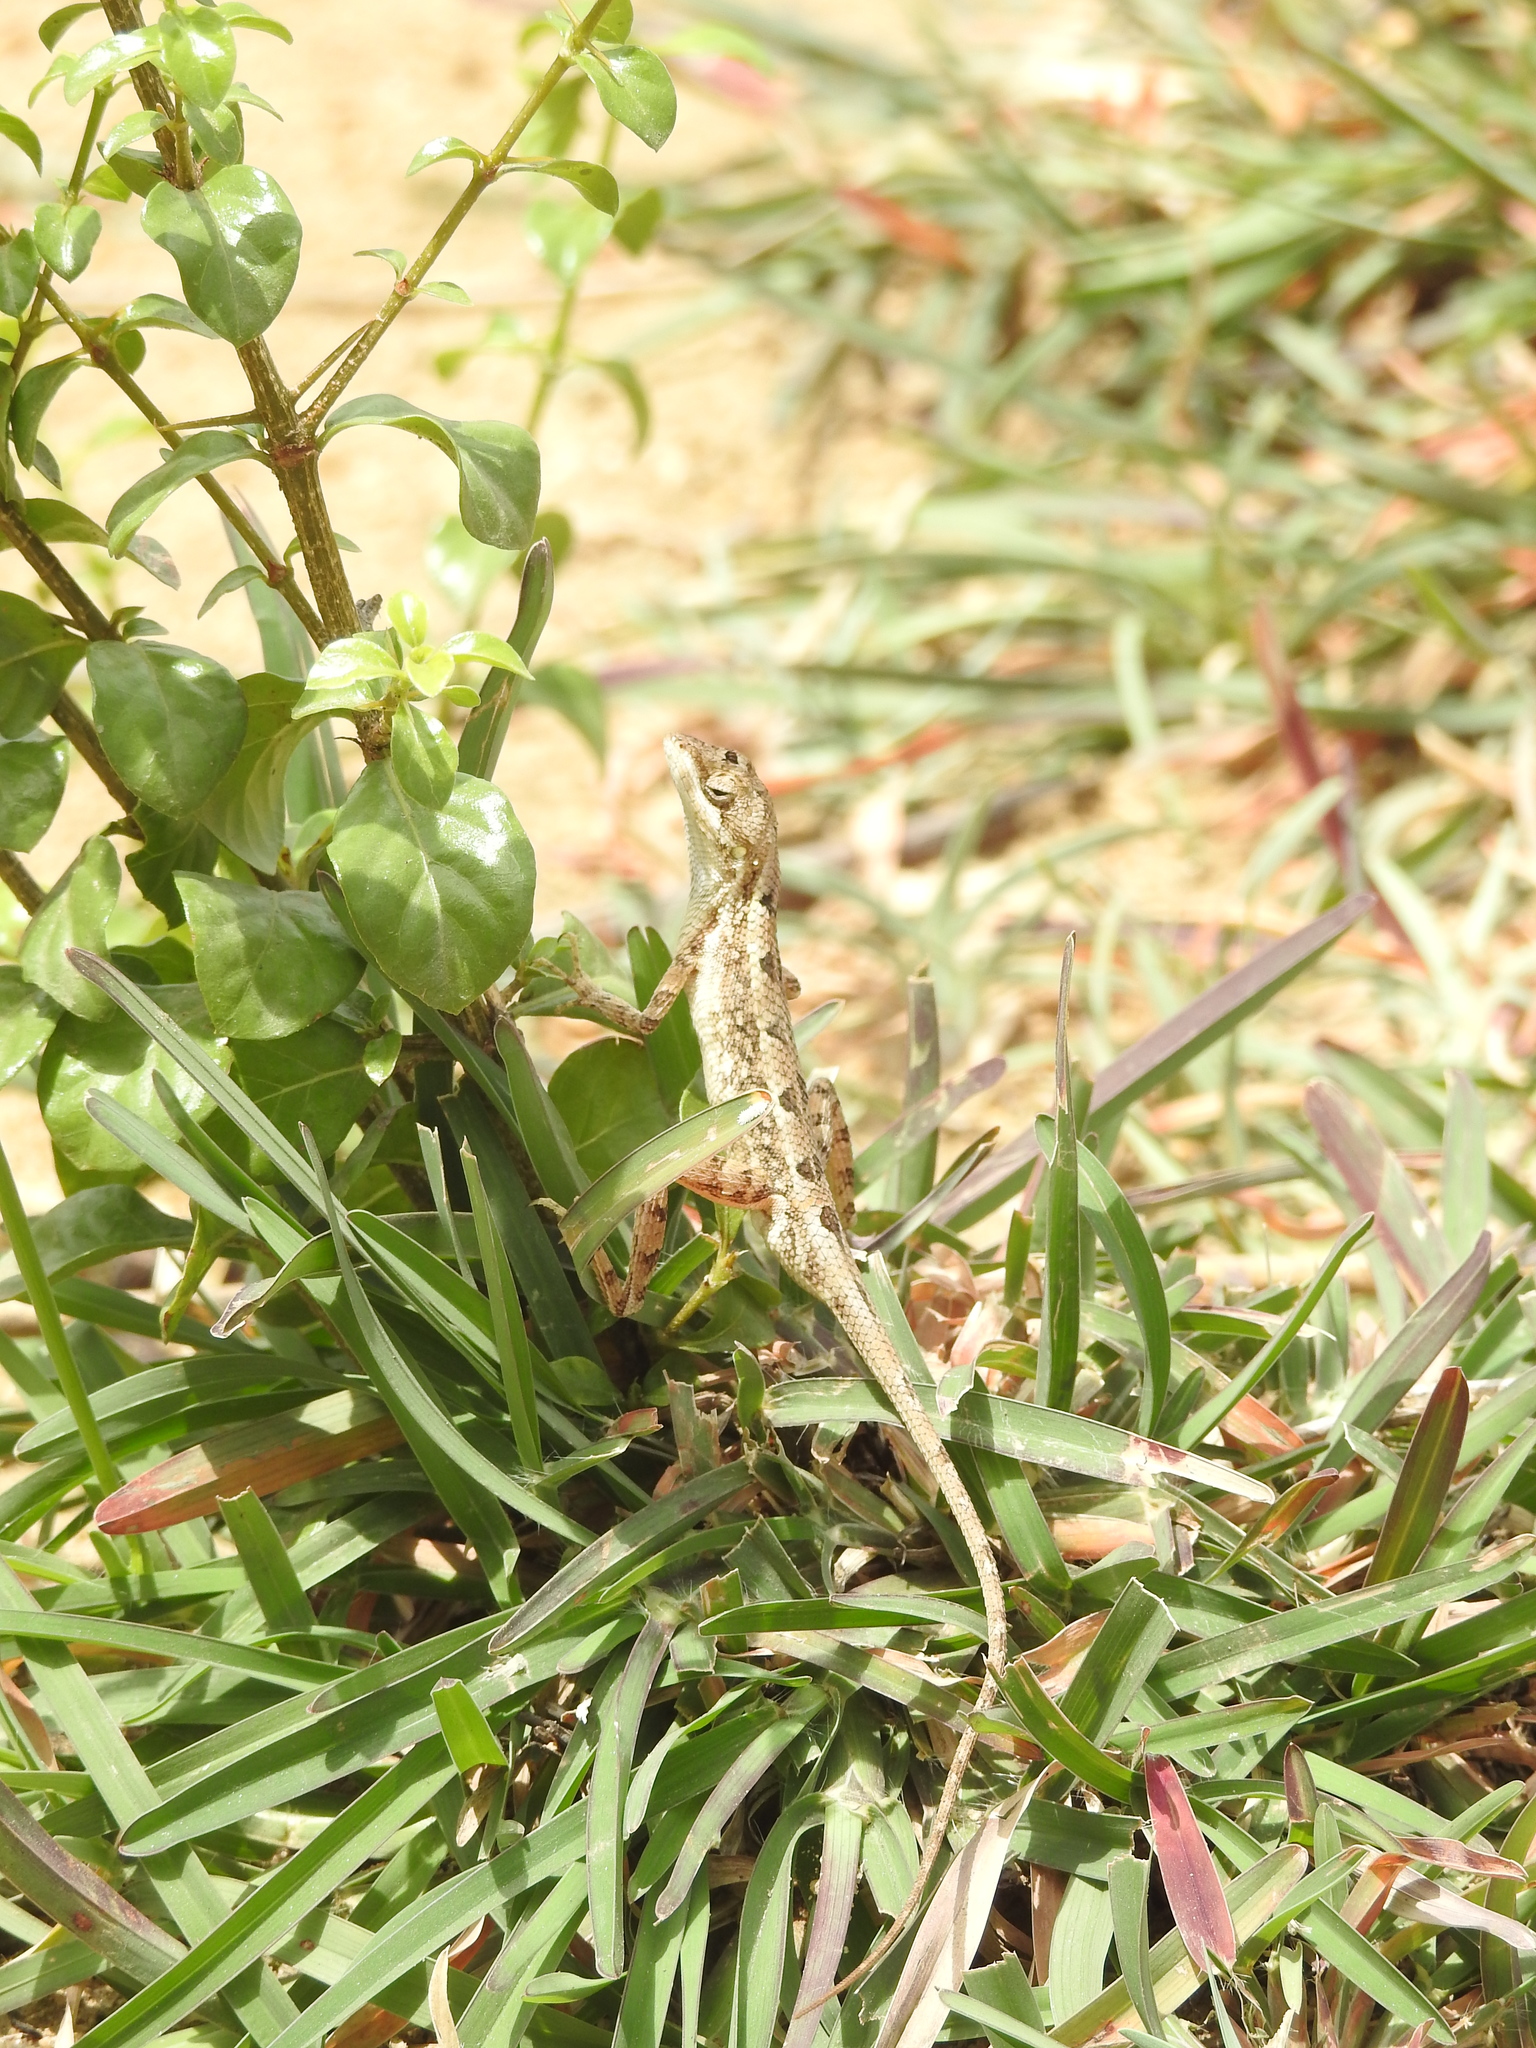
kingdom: Animalia
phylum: Chordata
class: Squamata
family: Agamidae
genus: Sitana
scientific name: Sitana ponticeriana
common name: Pondichéry fan throated lizard
